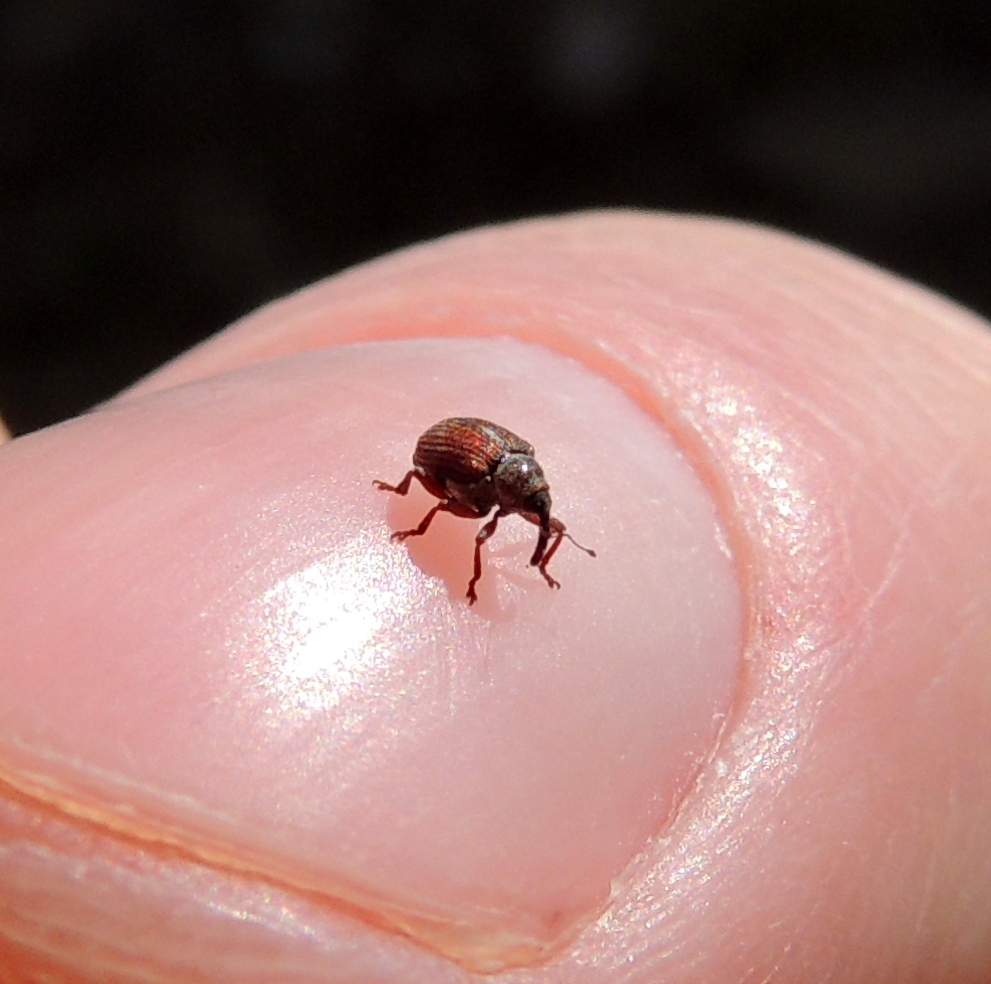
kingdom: Animalia
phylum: Arthropoda
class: Insecta
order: Coleoptera
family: Curculionidae
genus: Coeliodes
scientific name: Coeliodes rubicundus
